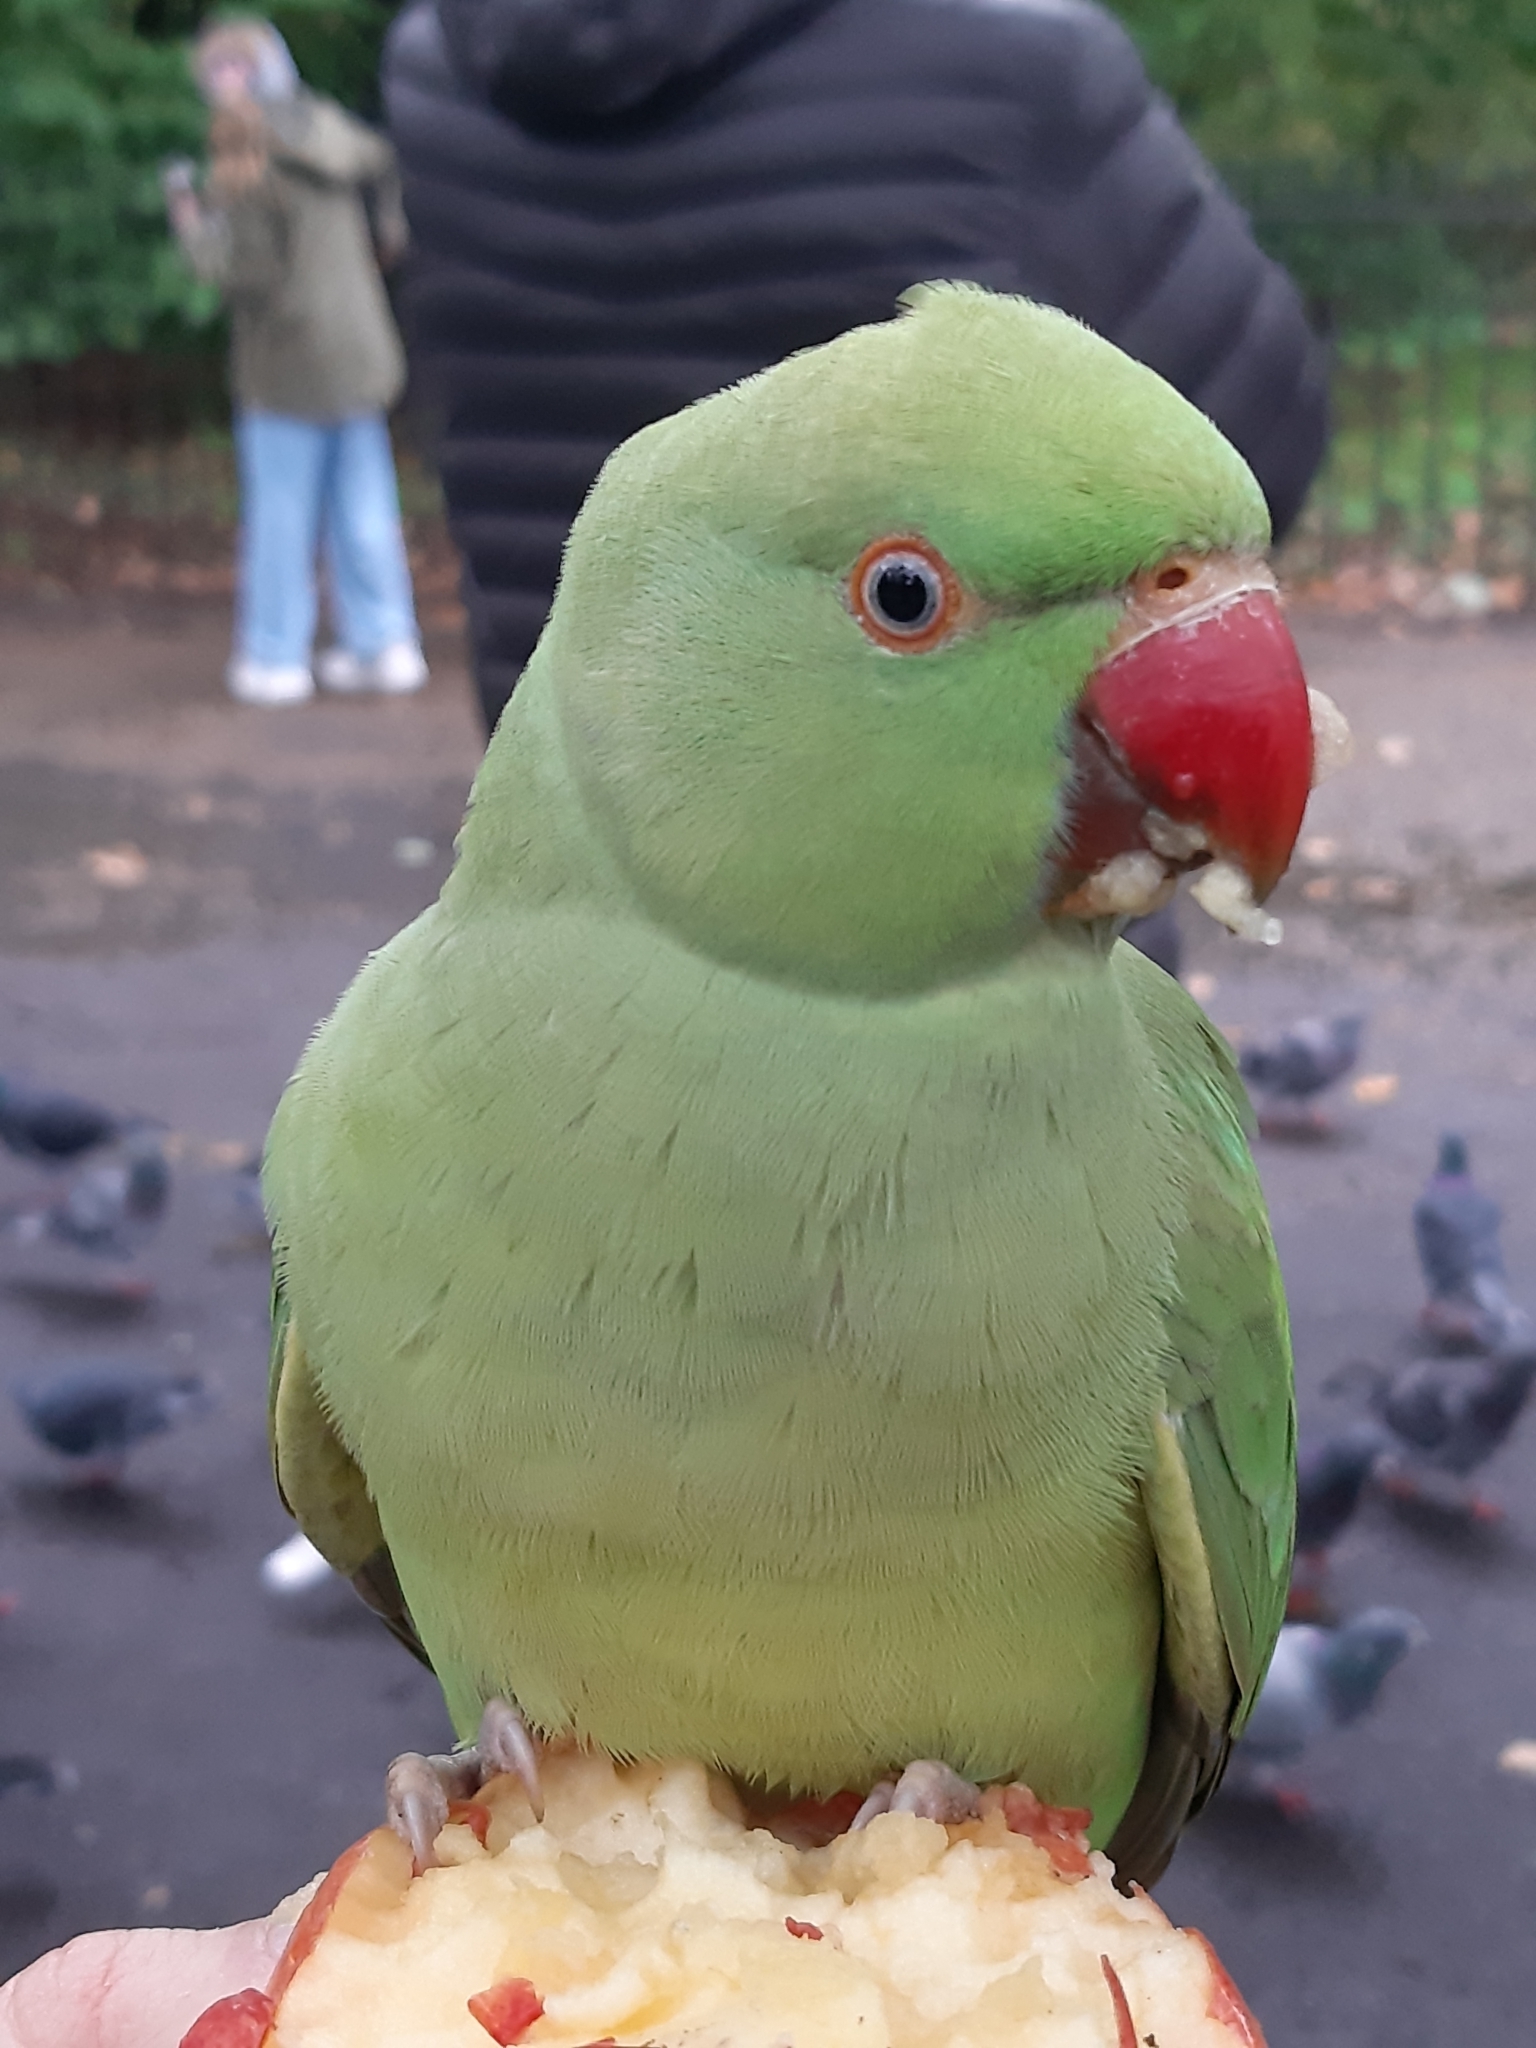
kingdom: Animalia
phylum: Chordata
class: Aves
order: Psittaciformes
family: Psittacidae
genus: Psittacula
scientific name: Psittacula krameri
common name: Rose-ringed parakeet
